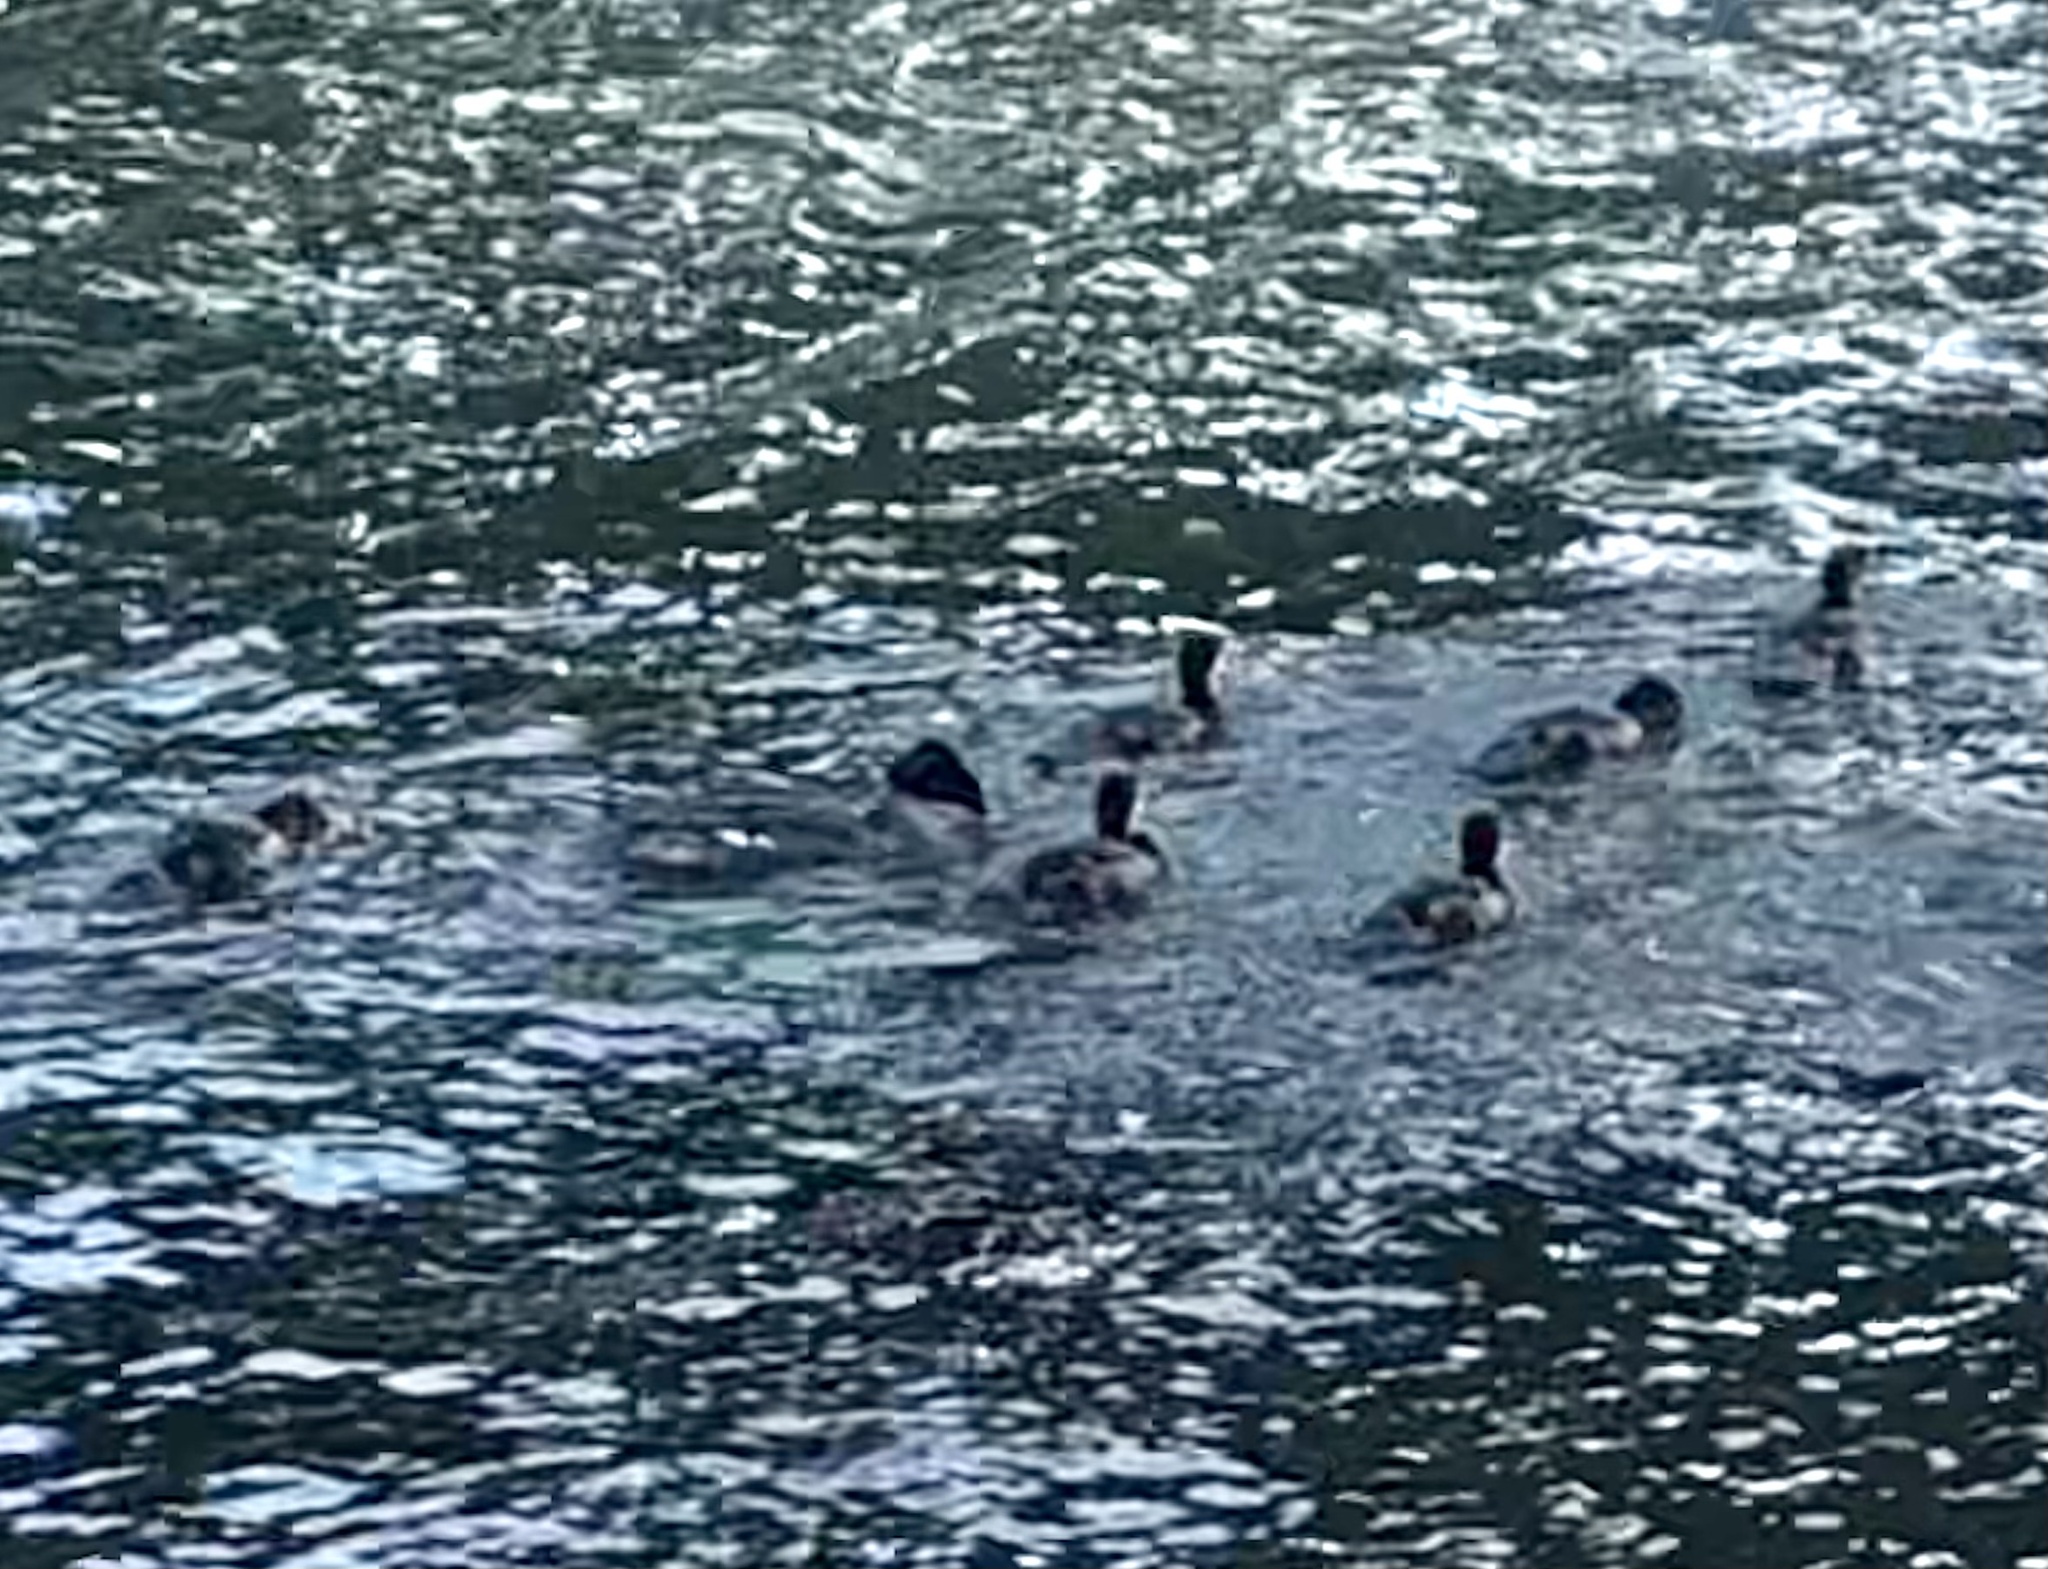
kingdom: Animalia
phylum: Chordata
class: Aves
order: Anseriformes
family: Anatidae
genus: Mergus
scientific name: Mergus merganser
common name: Common merganser
